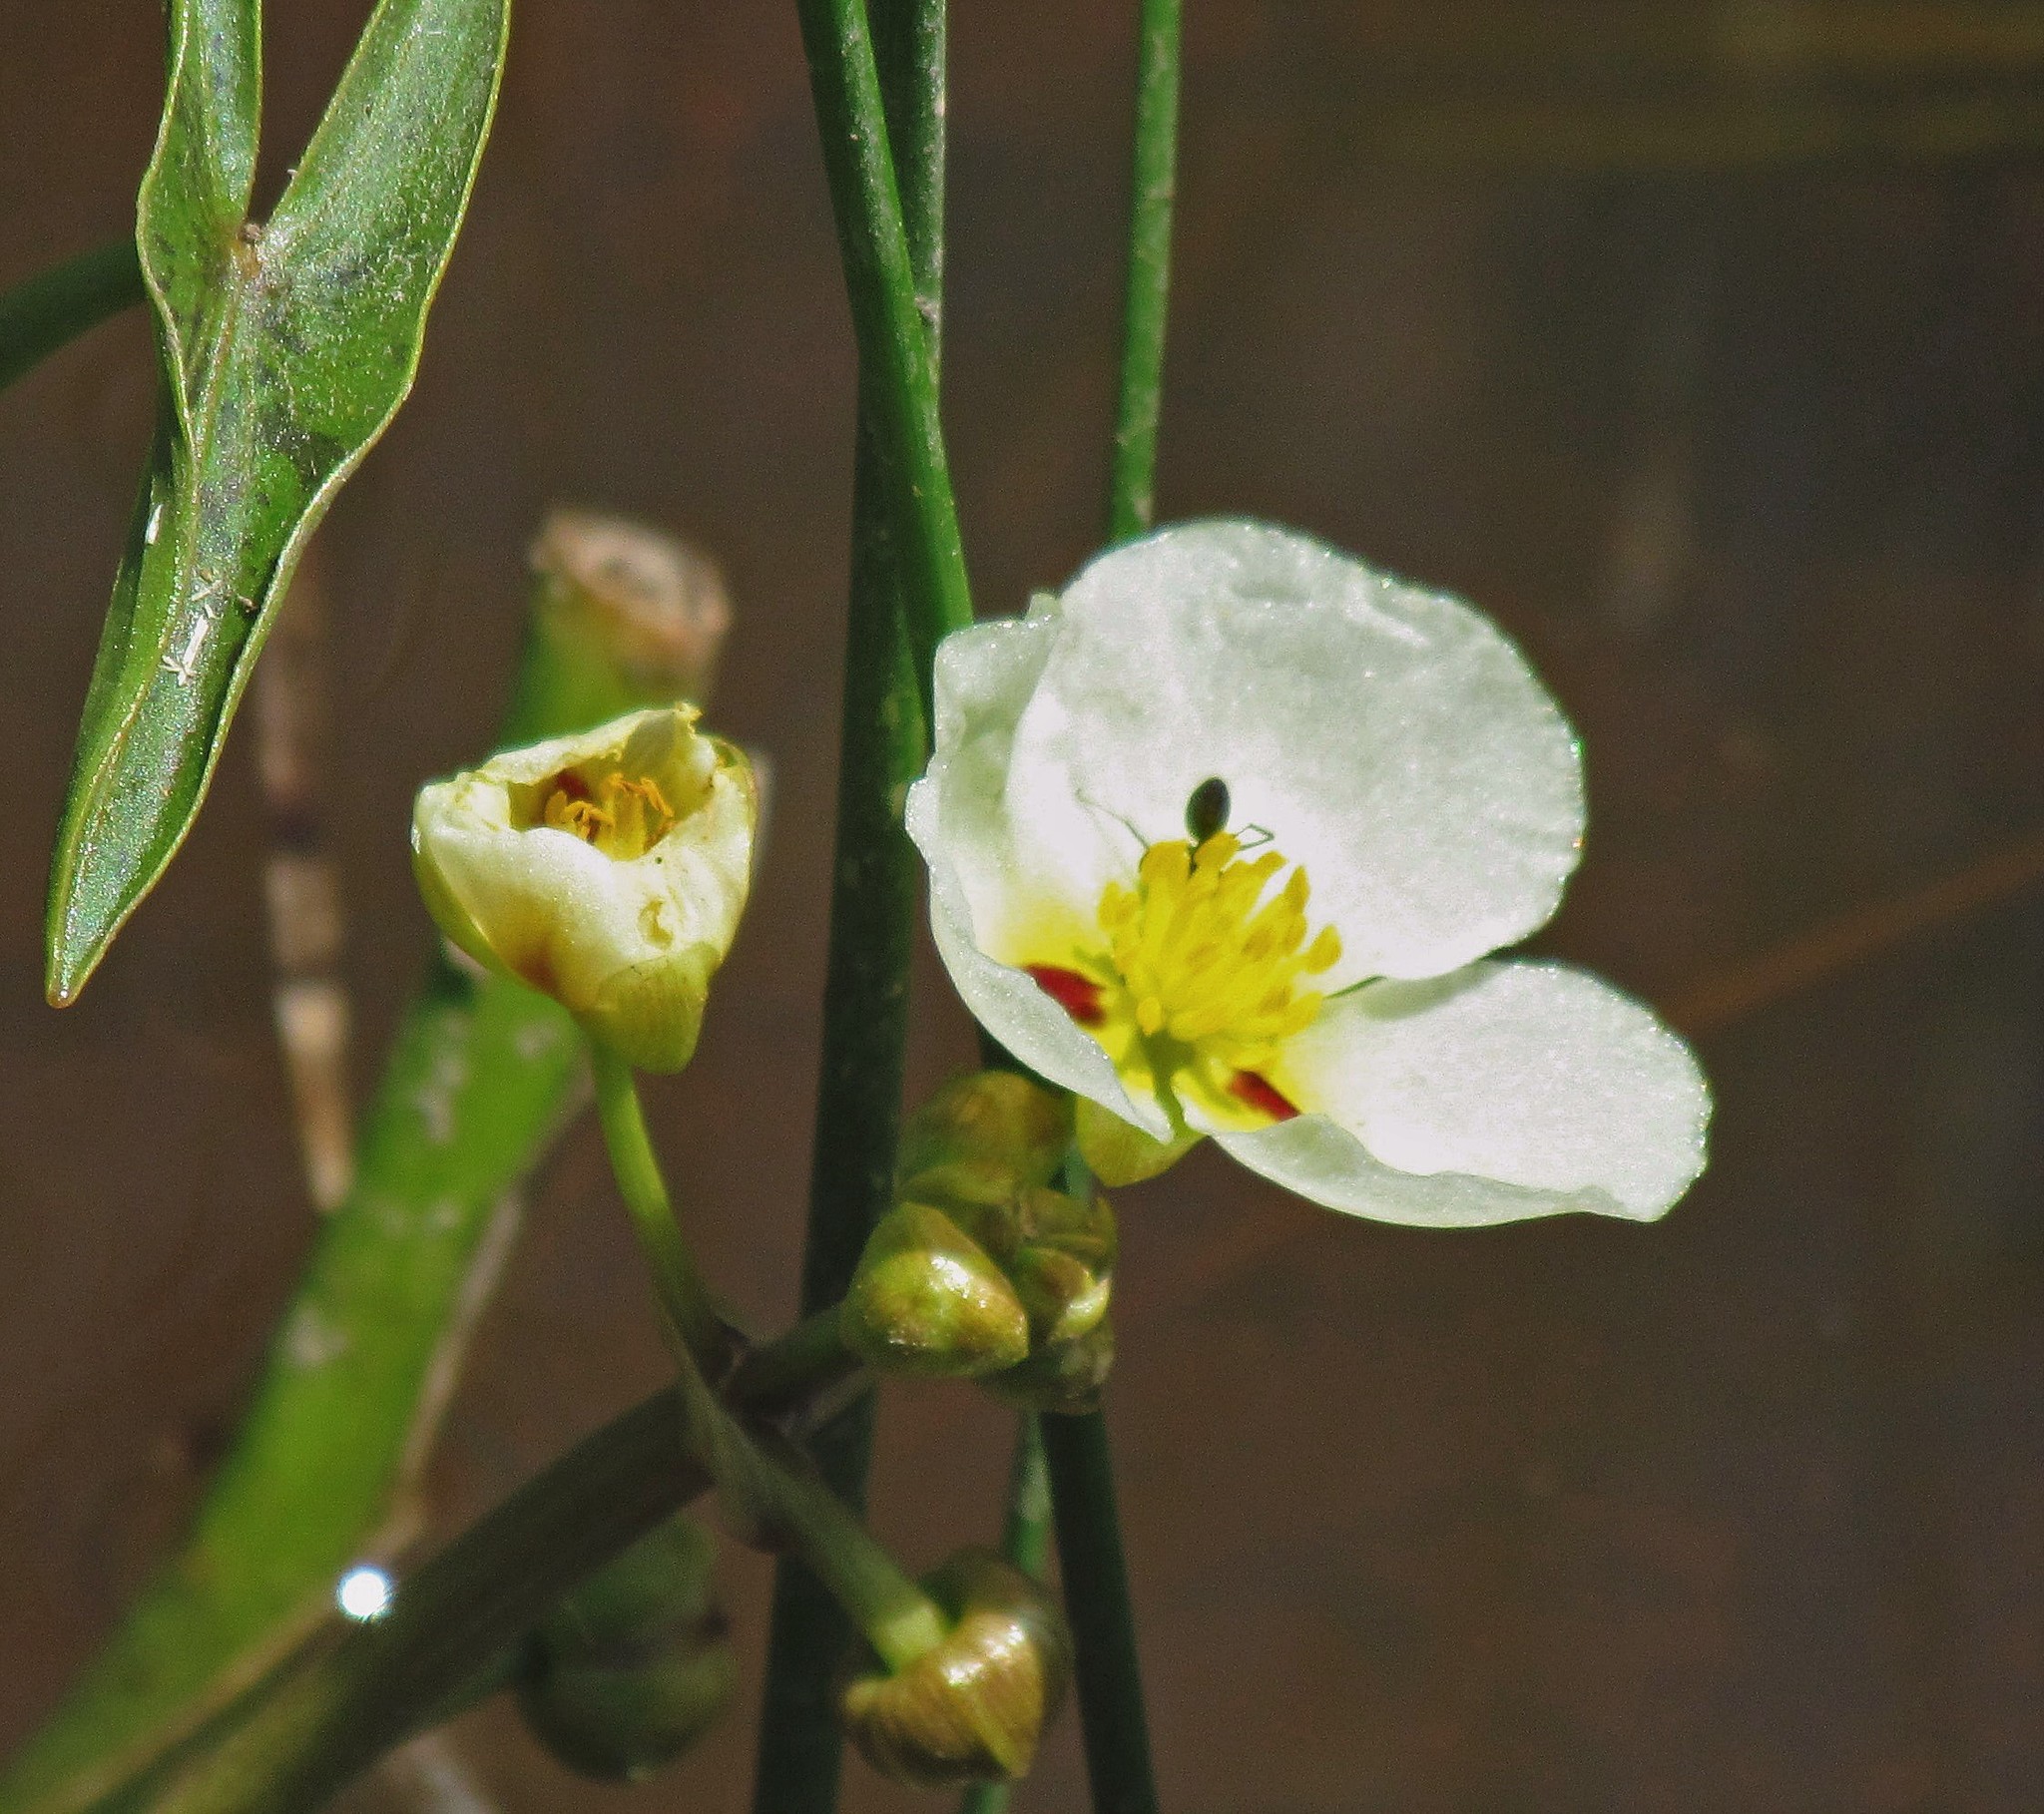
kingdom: Plantae
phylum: Tracheophyta
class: Liliopsida
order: Alismatales
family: Alismataceae
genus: Sagittaria
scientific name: Sagittaria montevidensis
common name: Giant arrowhead
